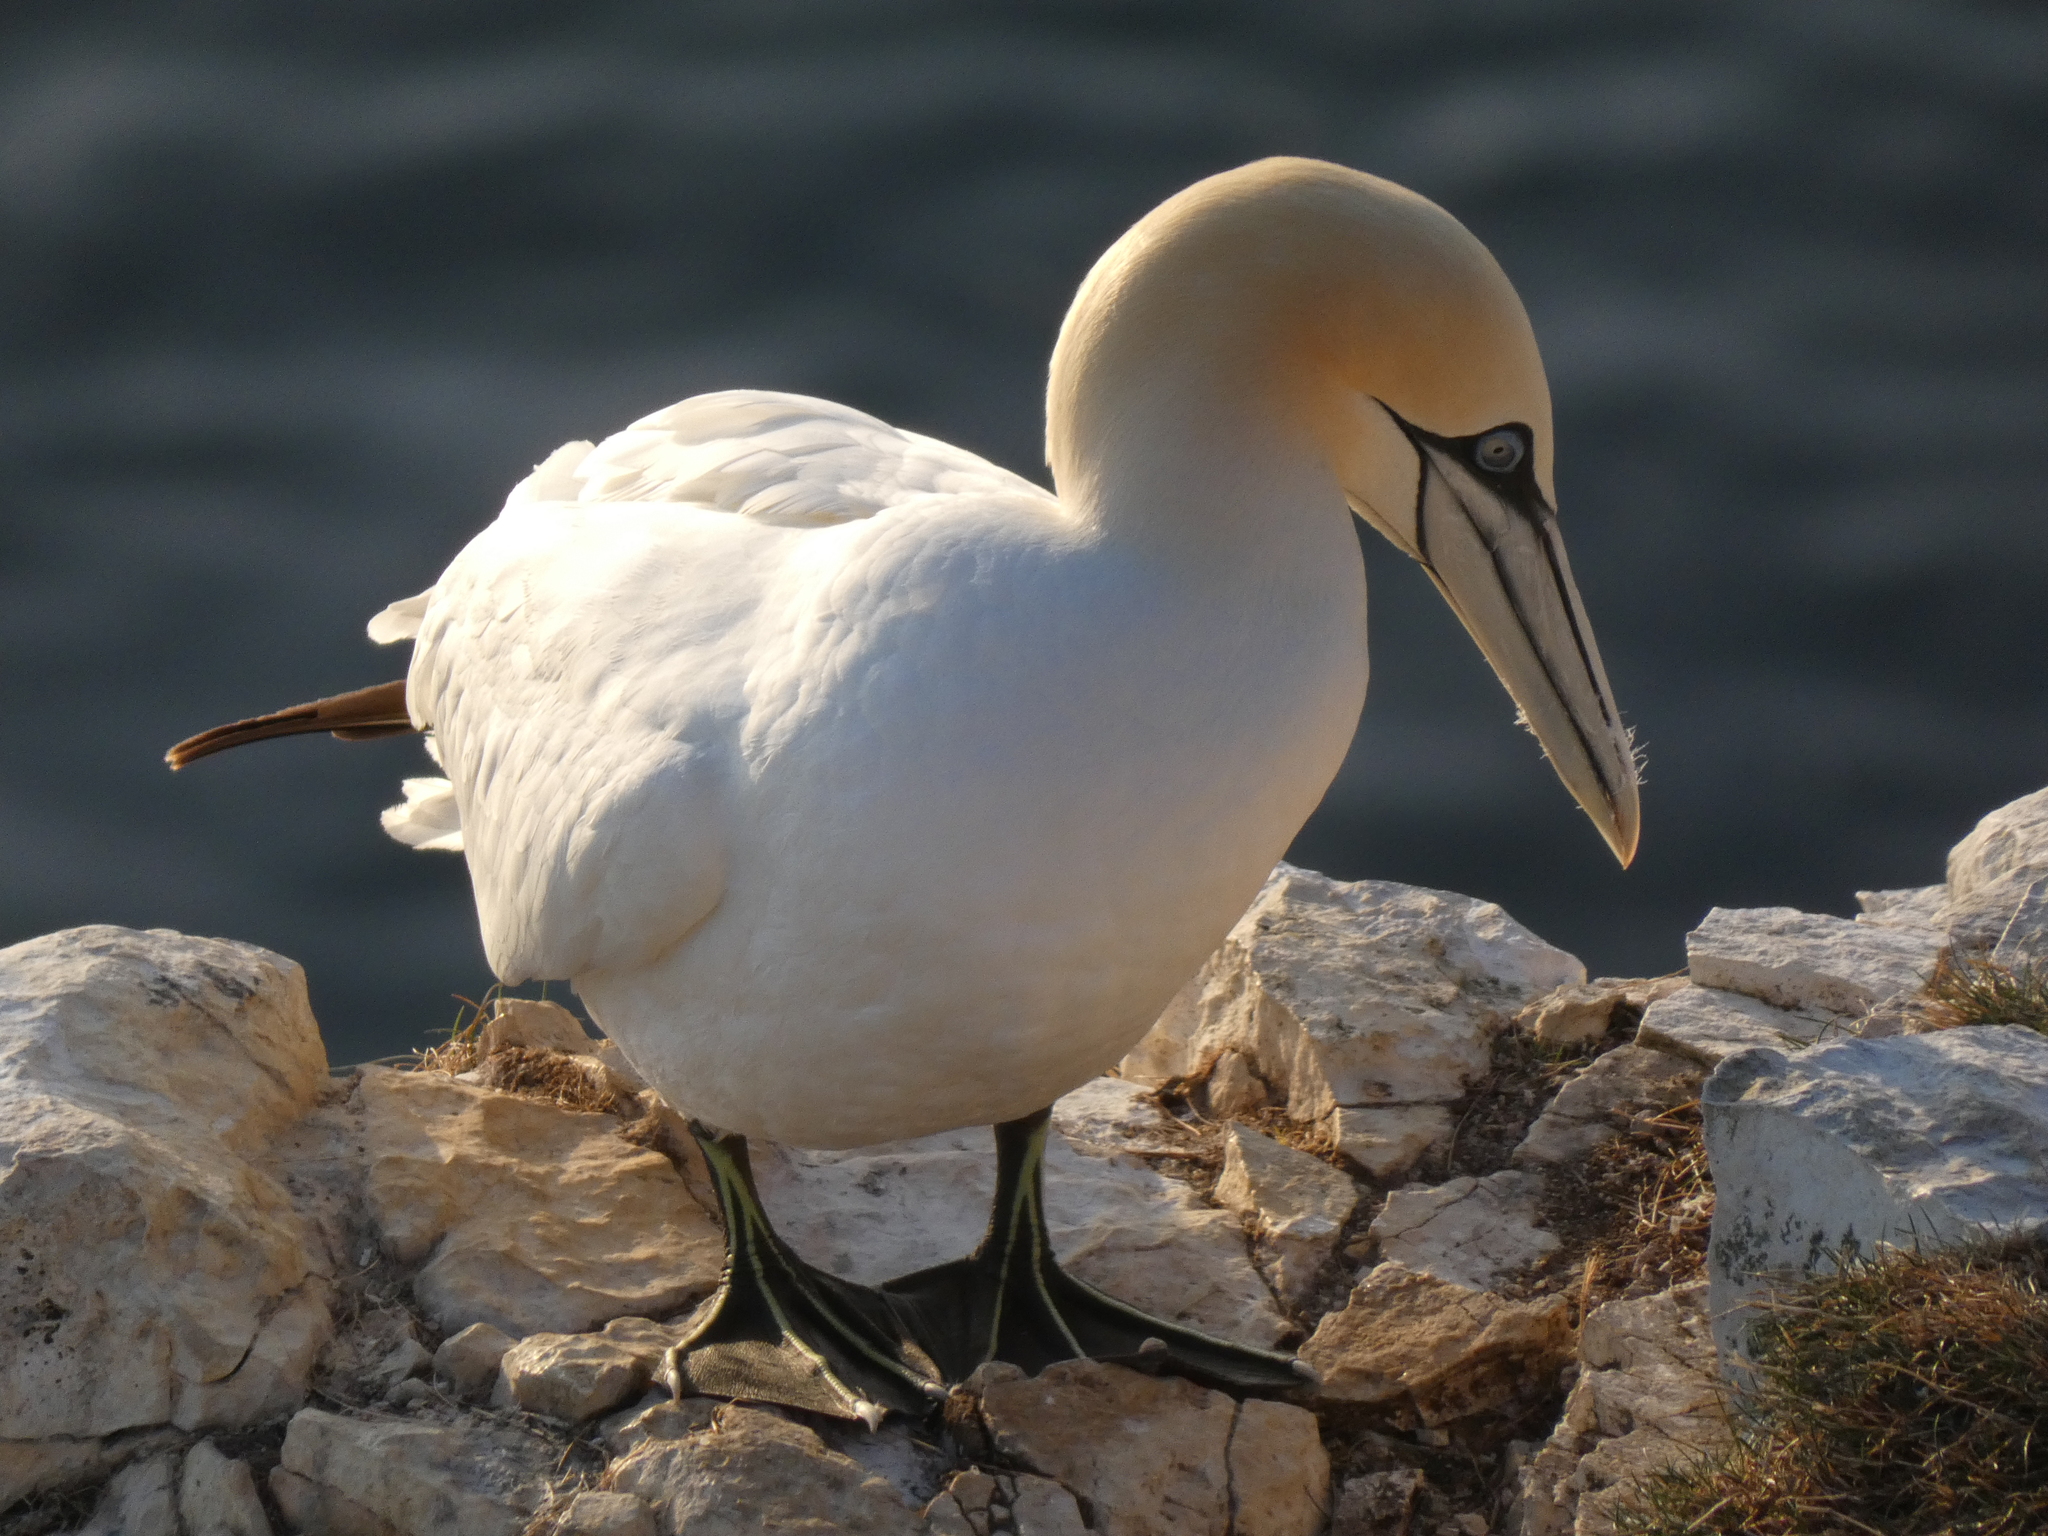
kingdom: Animalia
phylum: Chordata
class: Aves
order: Suliformes
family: Sulidae
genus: Morus
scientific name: Morus bassanus
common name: Northern gannet
